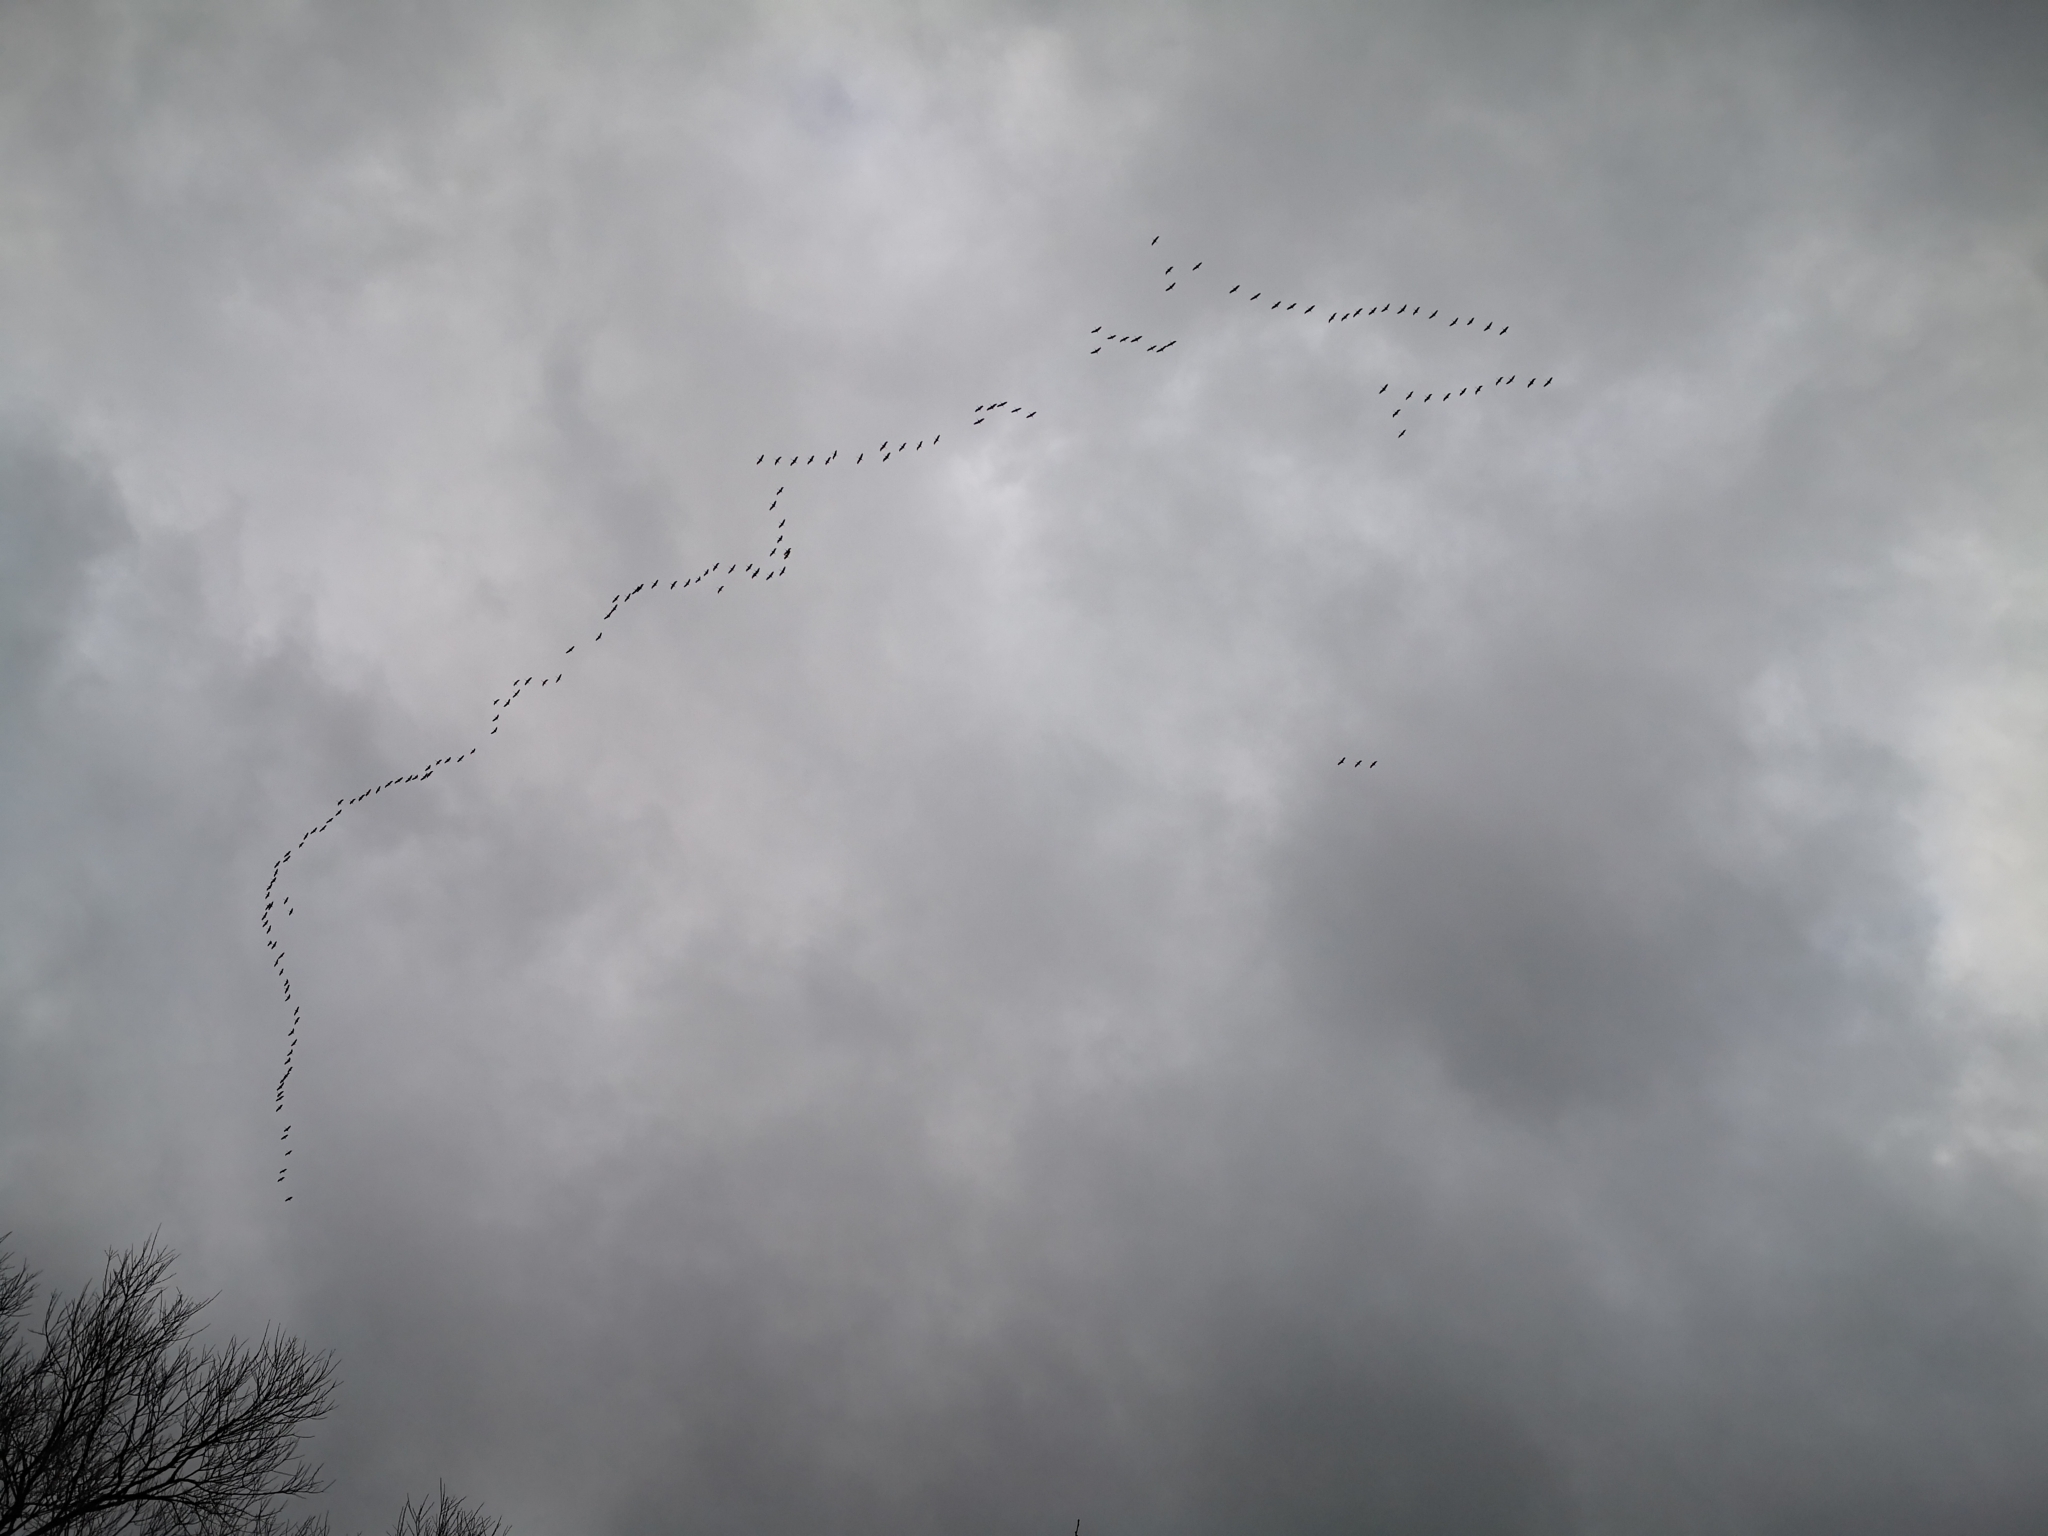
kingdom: Animalia
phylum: Chordata
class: Aves
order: Gruiformes
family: Gruidae
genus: Grus
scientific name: Grus grus
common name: Common crane
